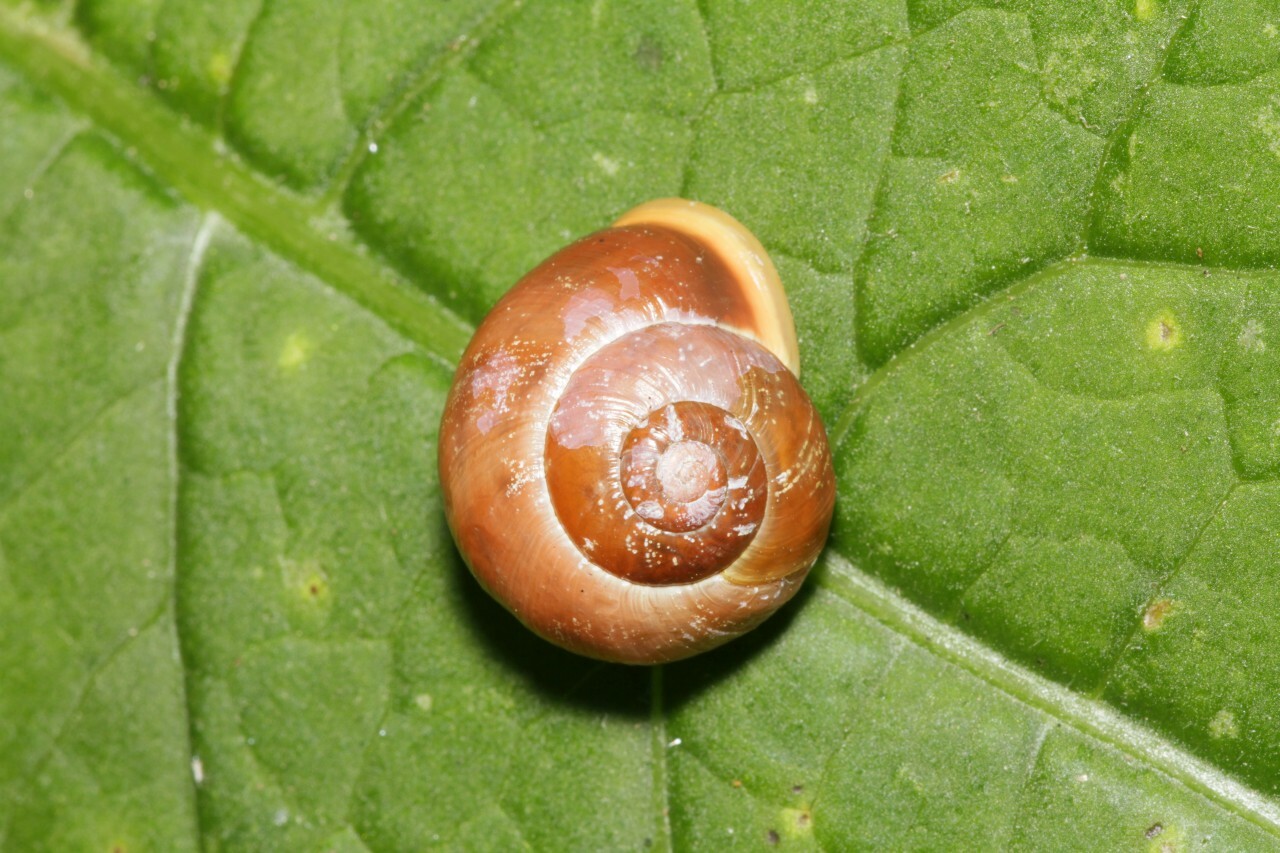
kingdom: Animalia
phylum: Mollusca
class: Gastropoda
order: Stylommatophora
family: Helicidae
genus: Cepaea
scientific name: Cepaea hortensis
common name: White-lip gardensnail
